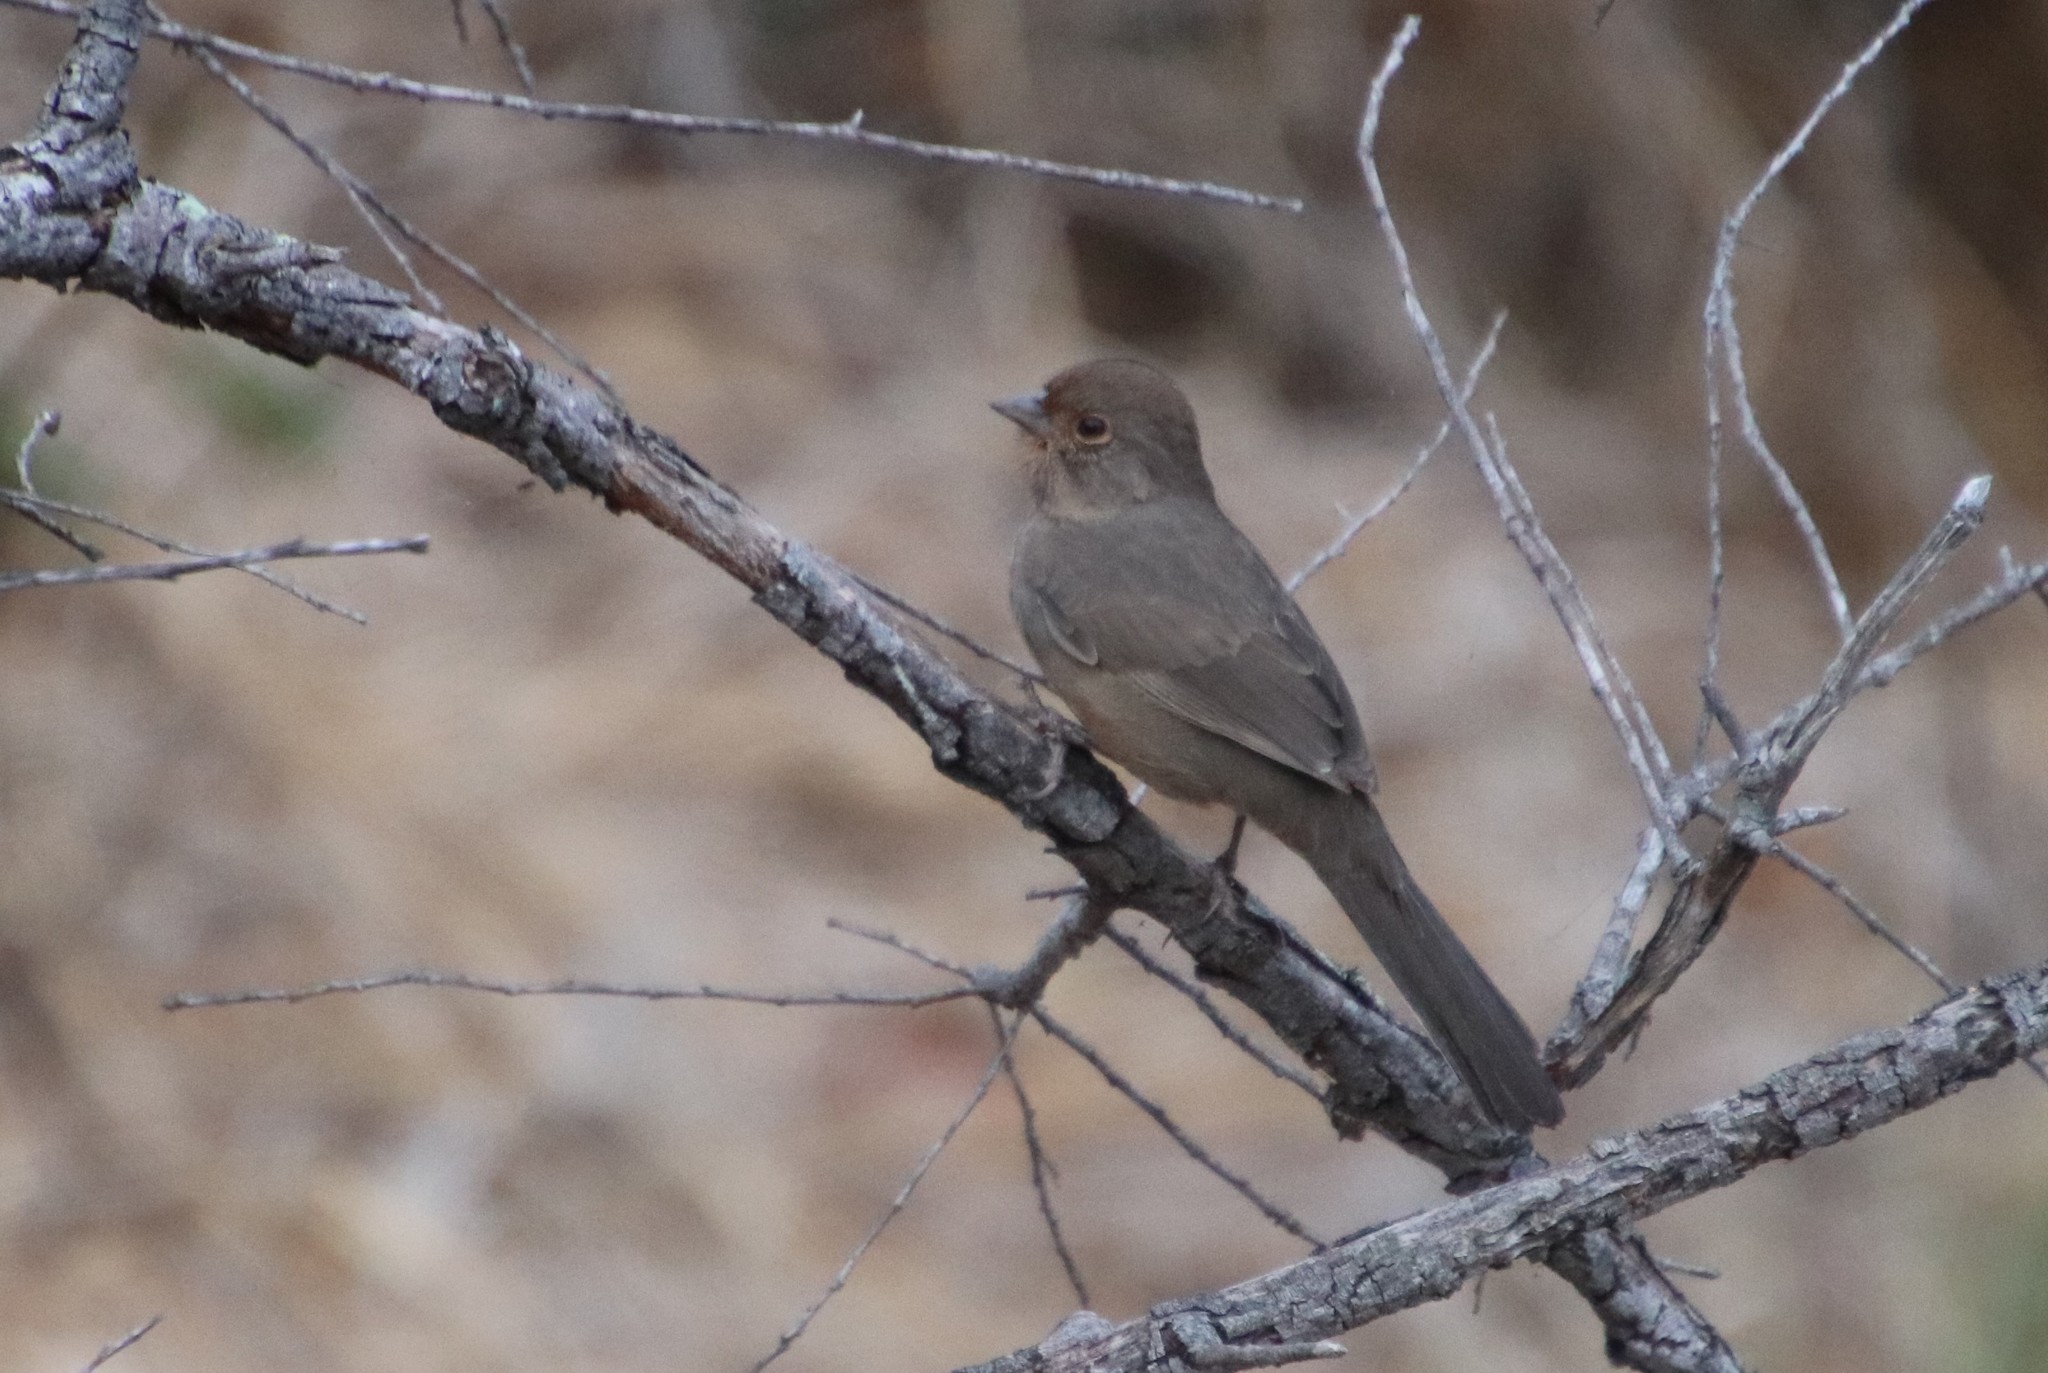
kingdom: Animalia
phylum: Chordata
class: Aves
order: Passeriformes
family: Passerellidae
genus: Melozone
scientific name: Melozone crissalis
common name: California towhee
